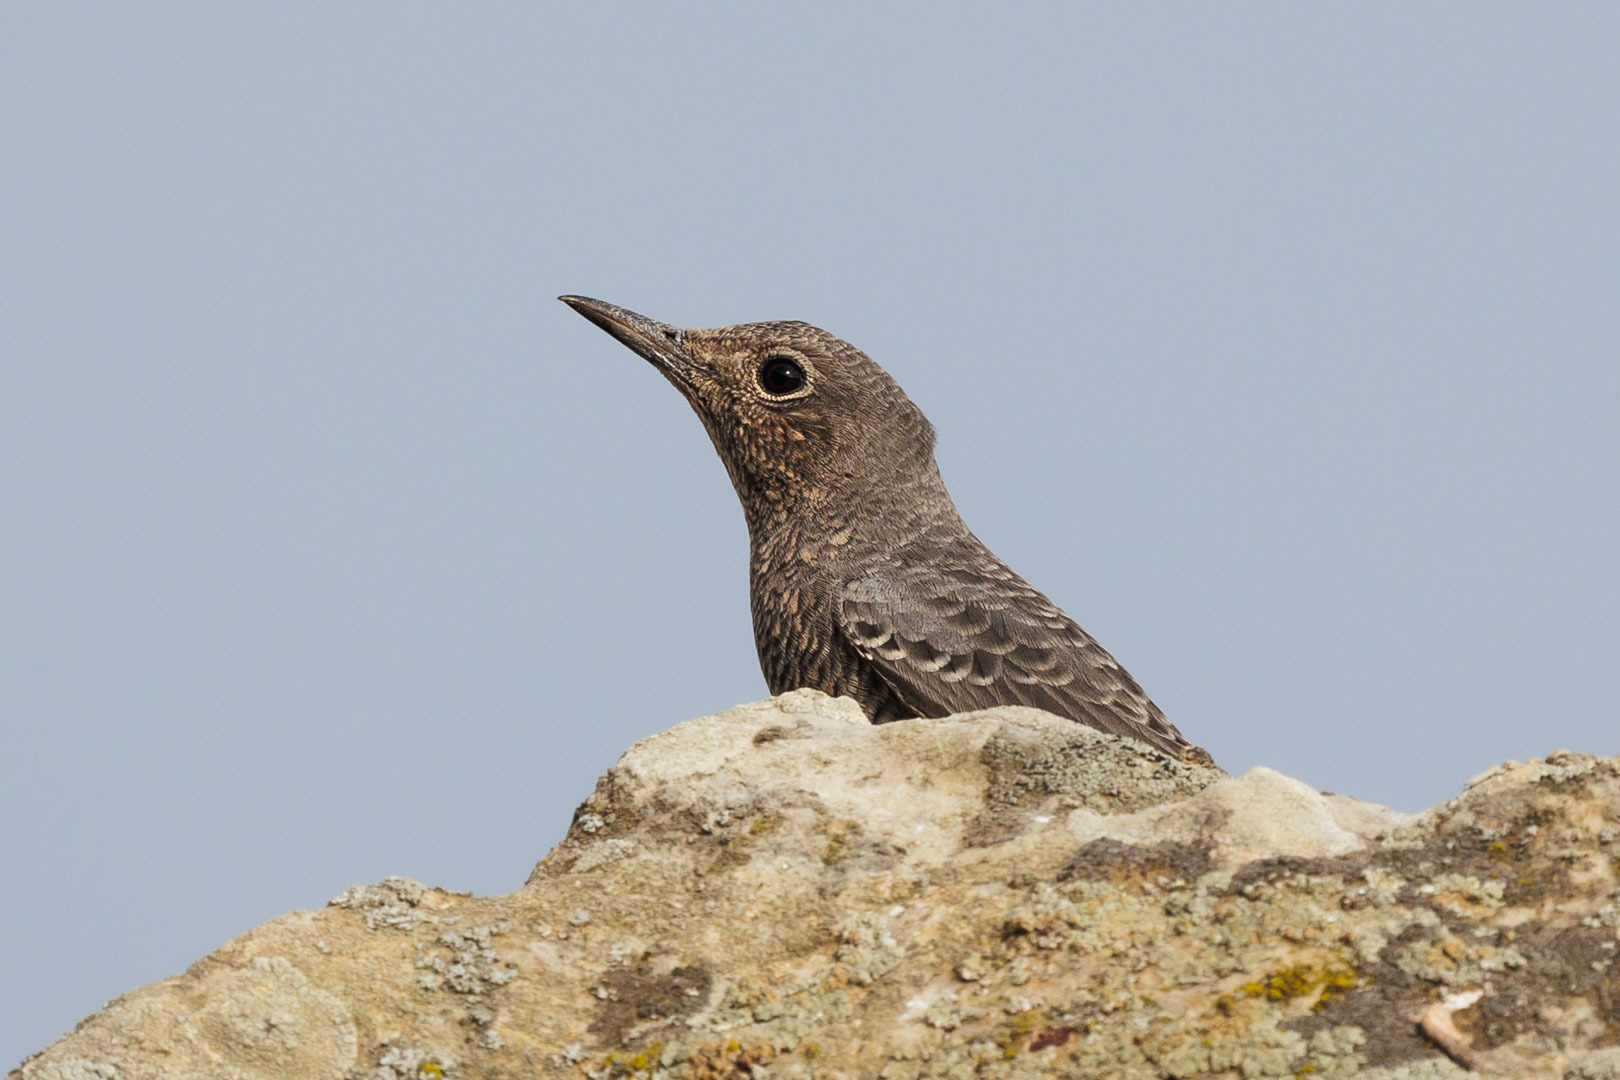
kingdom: Animalia
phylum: Chordata
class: Aves
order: Passeriformes
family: Muscicapidae
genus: Monticola
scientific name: Monticola solitarius
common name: Blue rock thrush
